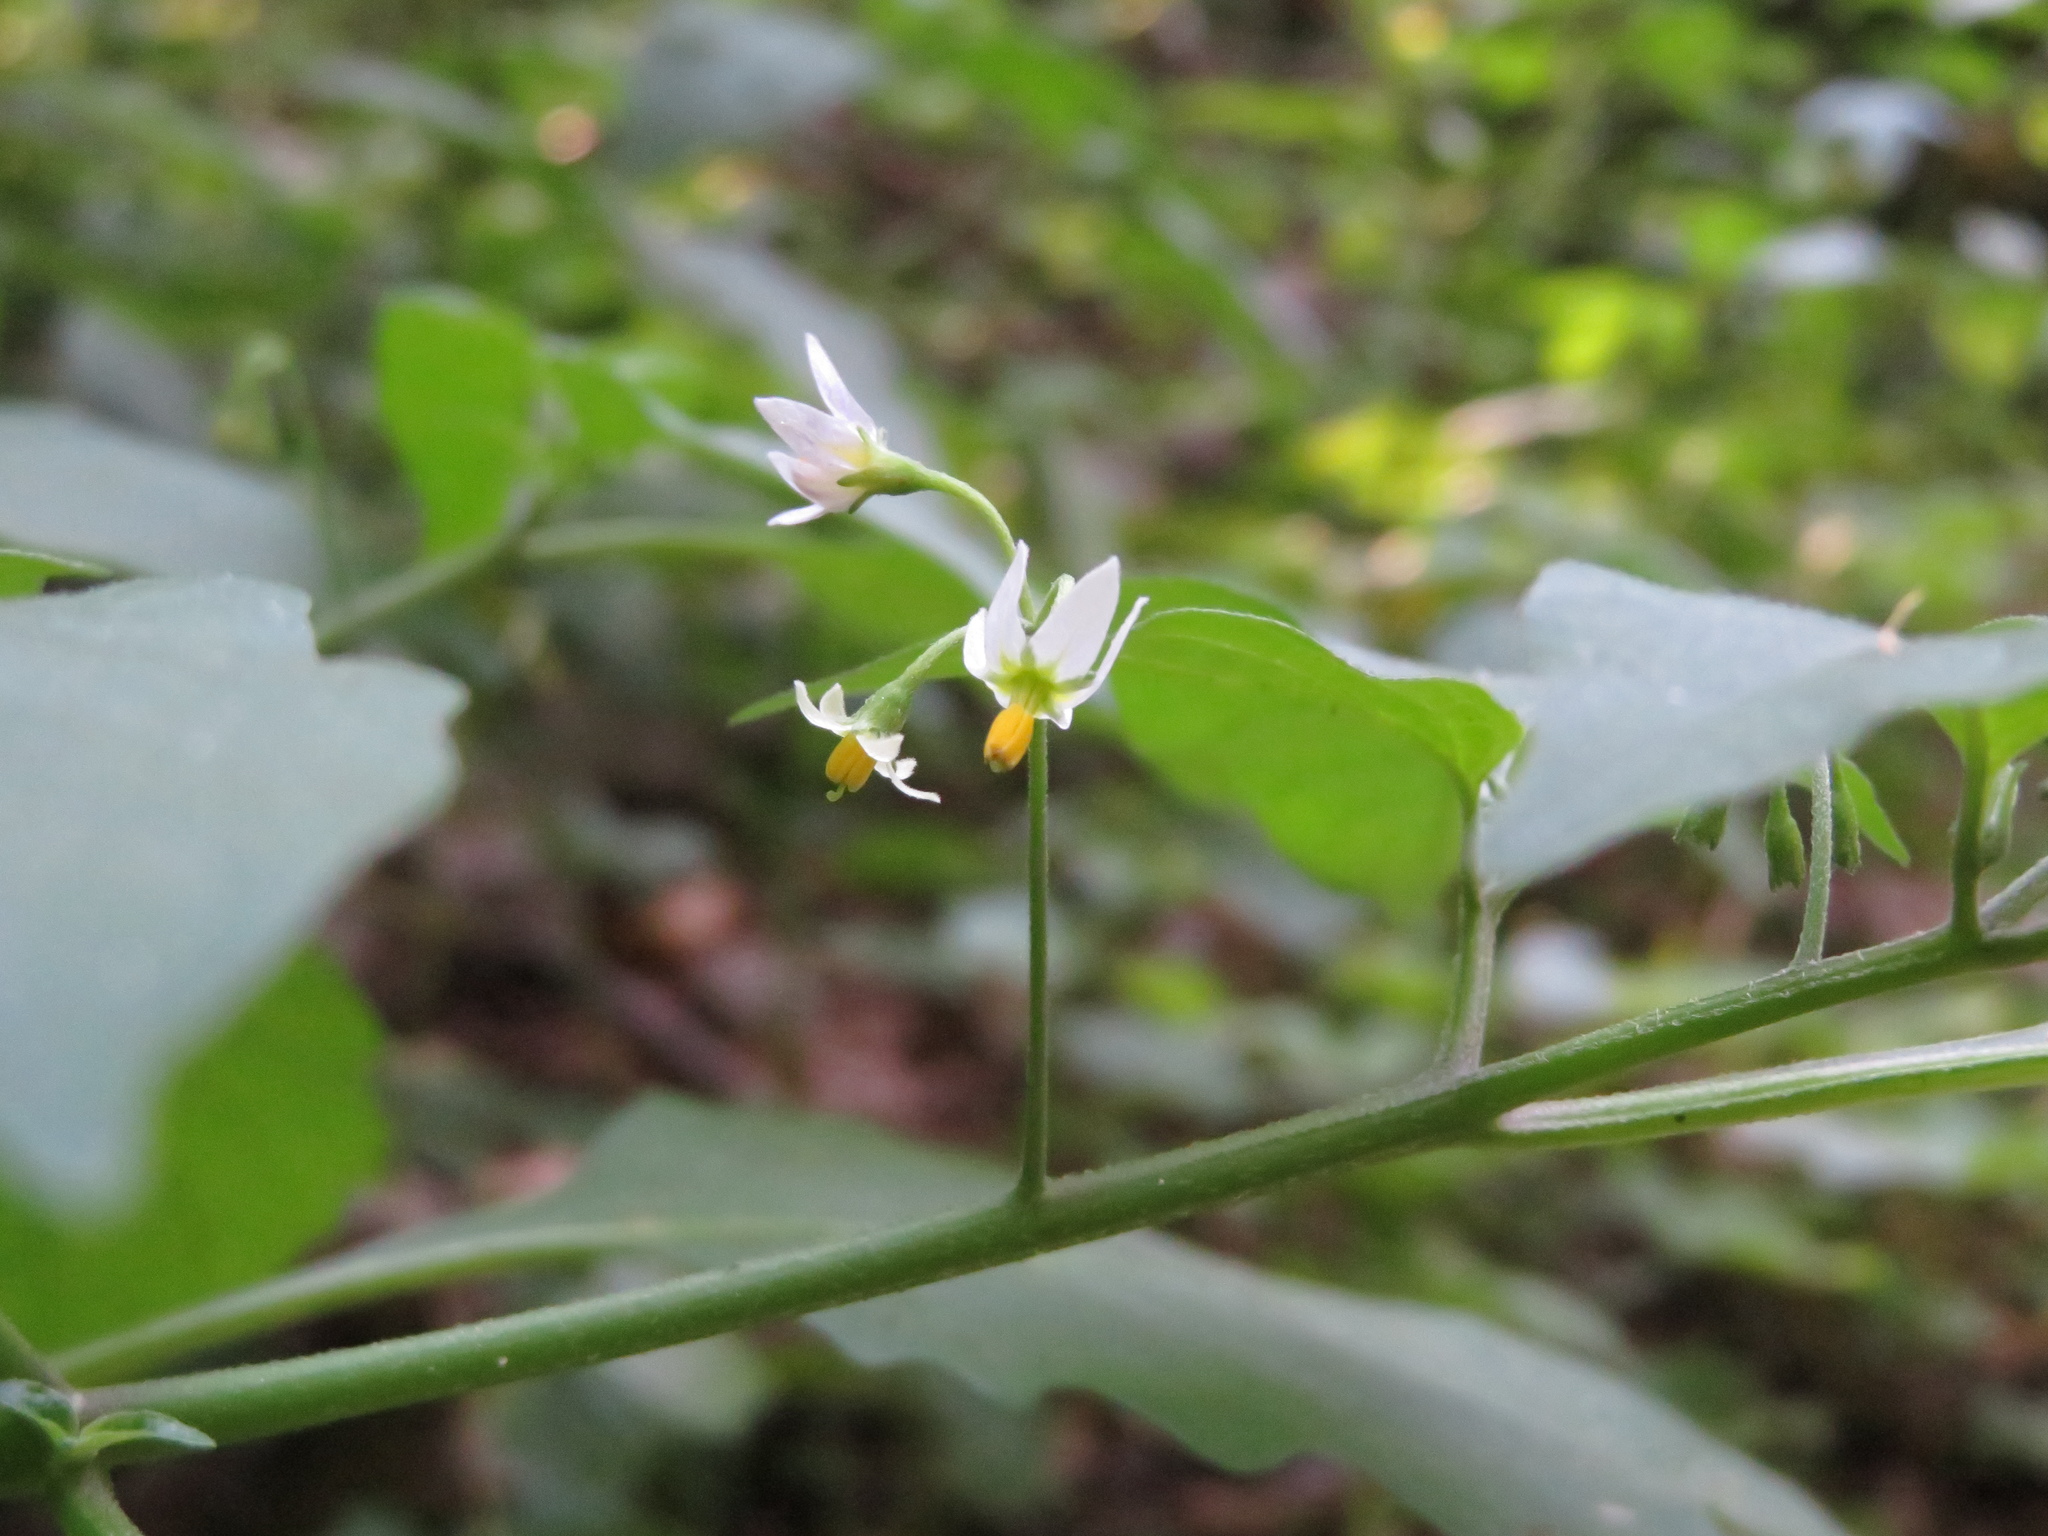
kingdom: Plantae
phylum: Tracheophyta
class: Magnoliopsida
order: Solanales
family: Solanaceae
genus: Solanum
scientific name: Solanum emulans
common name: Eastern black nightshade
